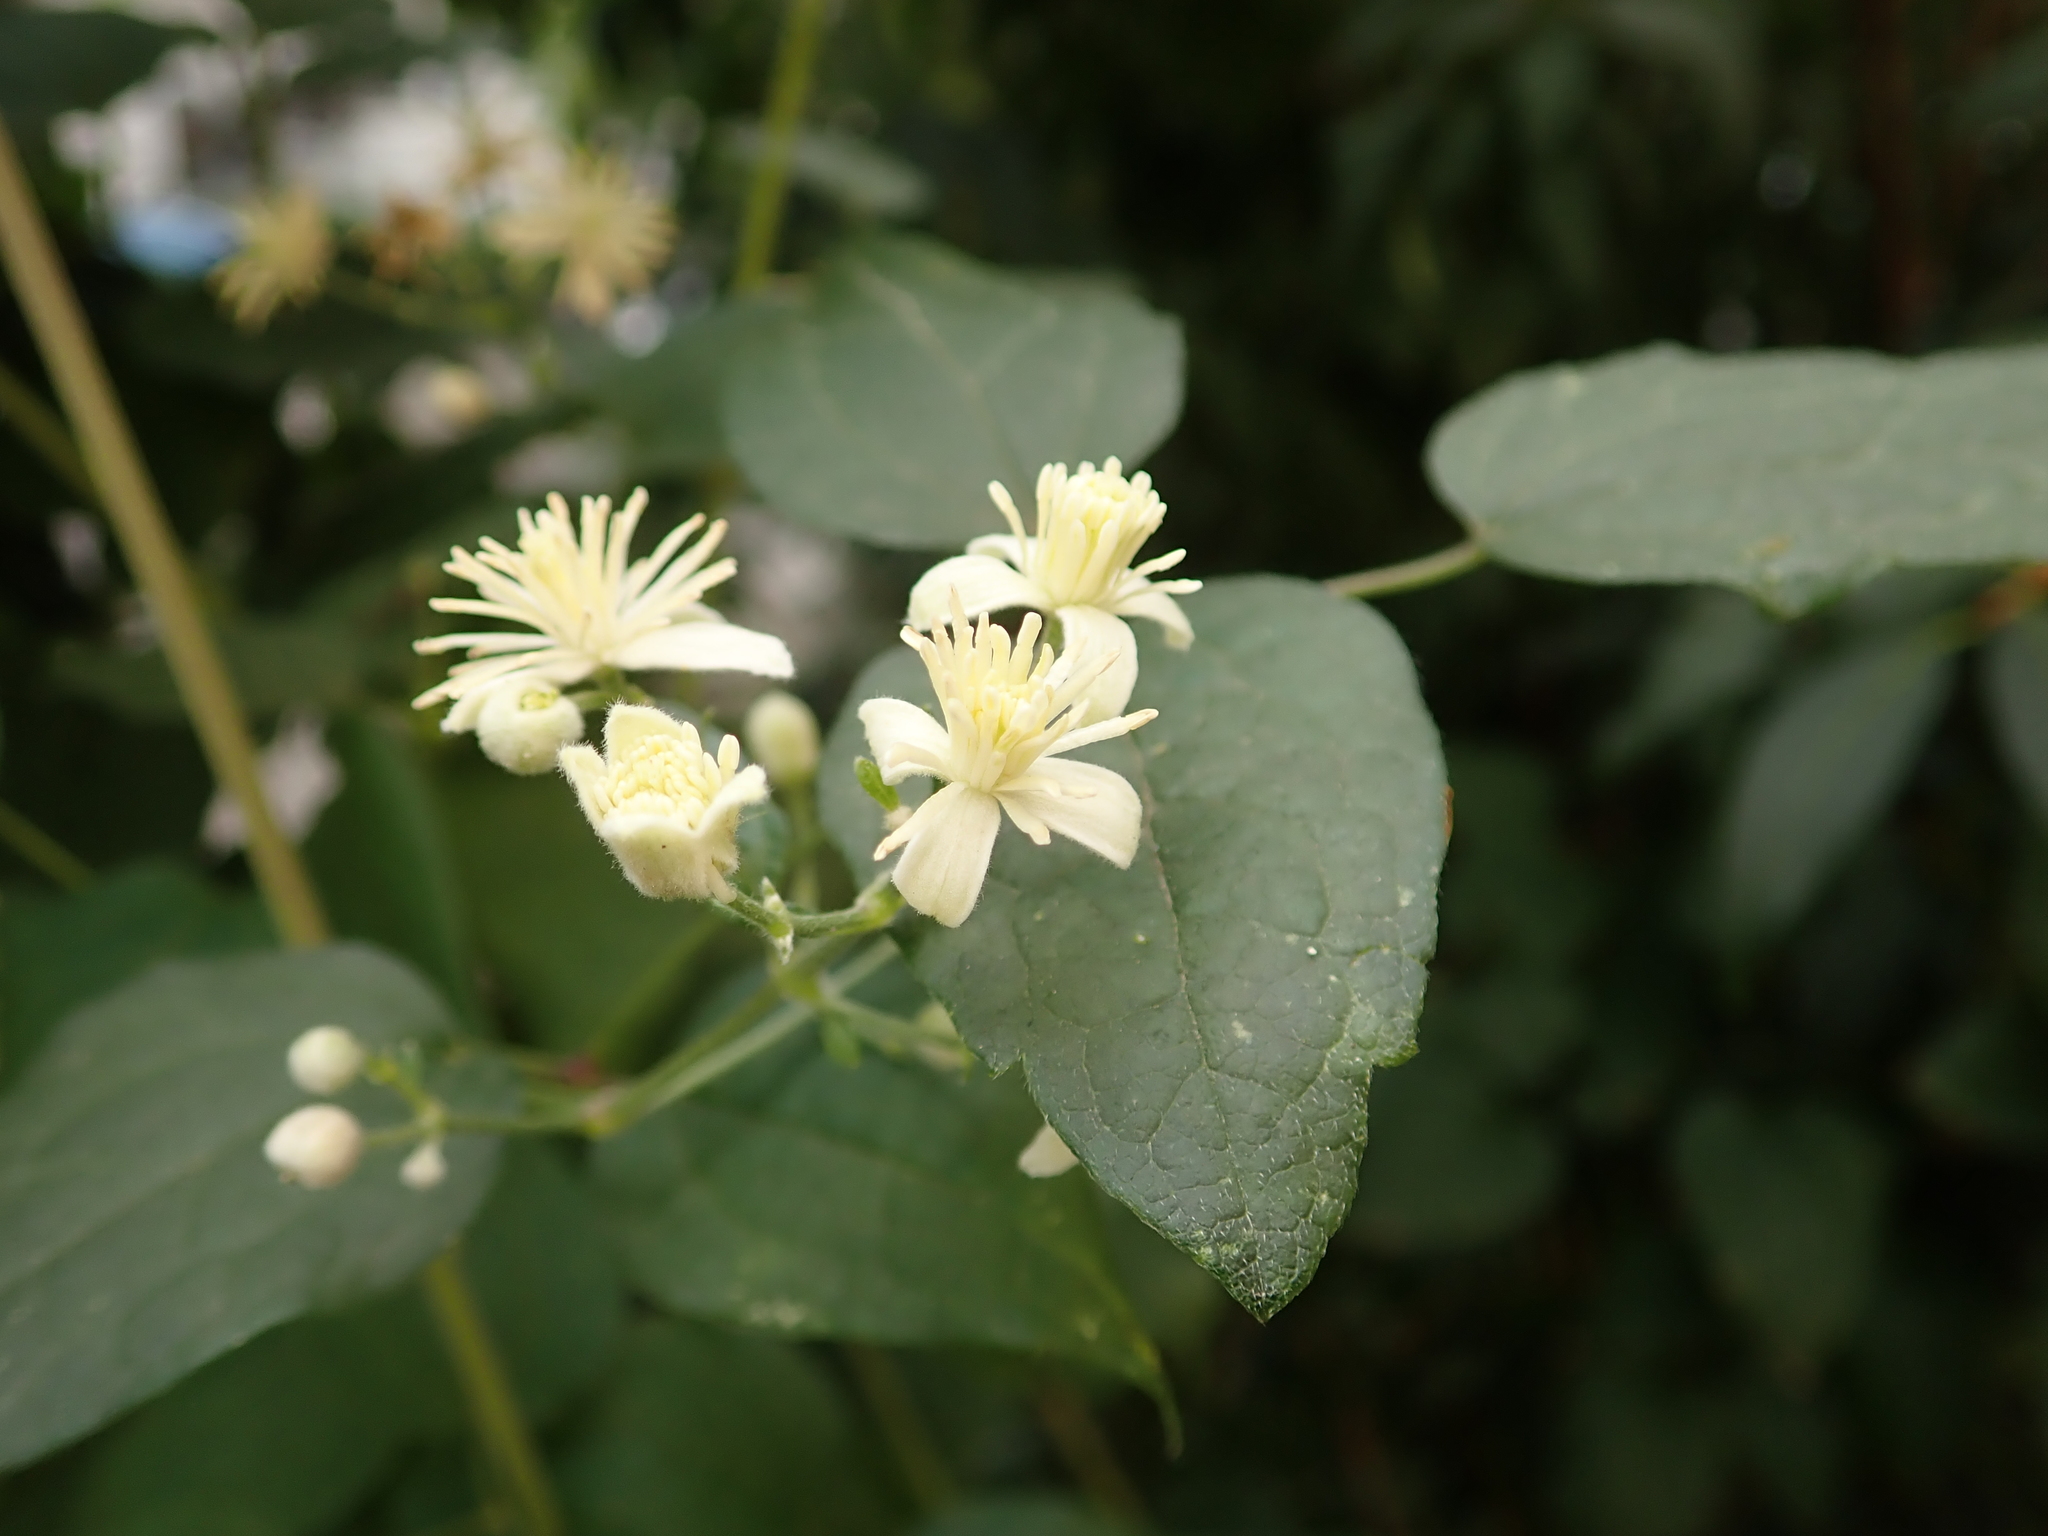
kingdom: Plantae
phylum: Tracheophyta
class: Magnoliopsida
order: Ranunculales
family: Ranunculaceae
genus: Clematis
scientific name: Clematis vitalba
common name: Evergreen clematis
